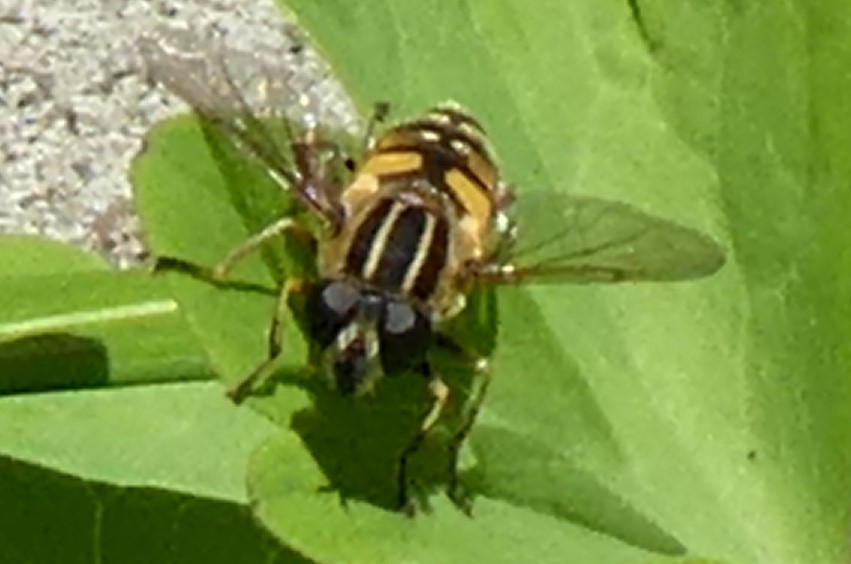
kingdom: Animalia
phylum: Arthropoda
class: Insecta
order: Diptera
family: Syrphidae
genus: Helophilus
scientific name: Helophilus pendulus
